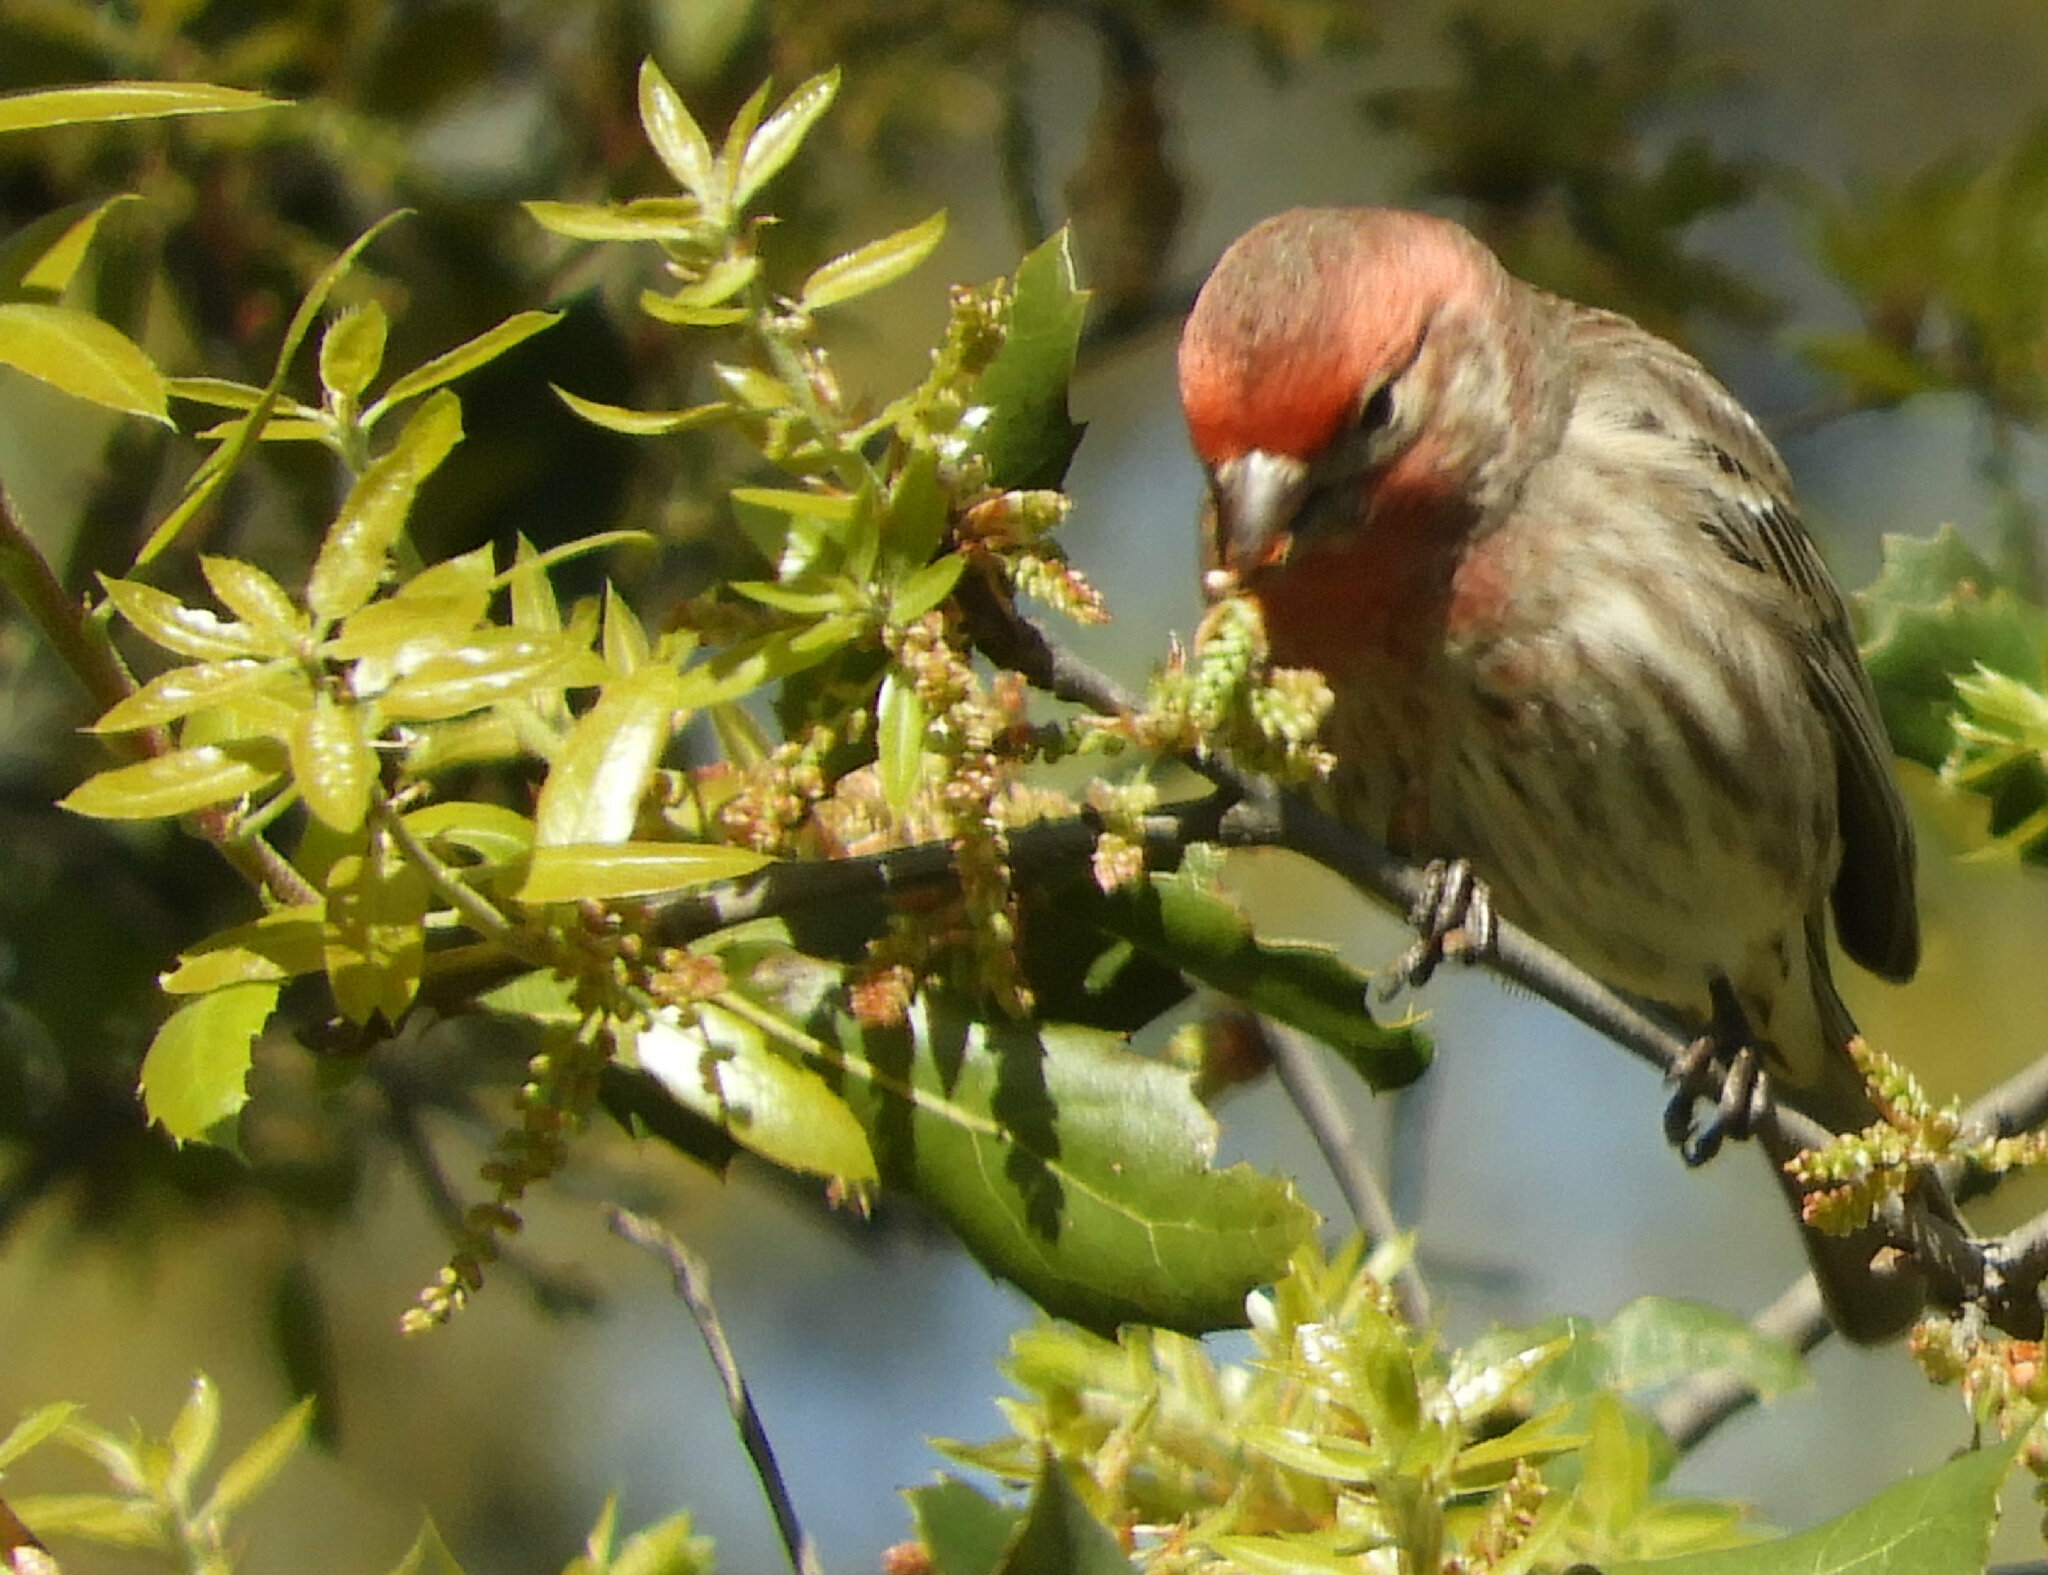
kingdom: Animalia
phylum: Chordata
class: Aves
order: Passeriformes
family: Fringillidae
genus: Haemorhous
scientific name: Haemorhous mexicanus
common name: House finch
